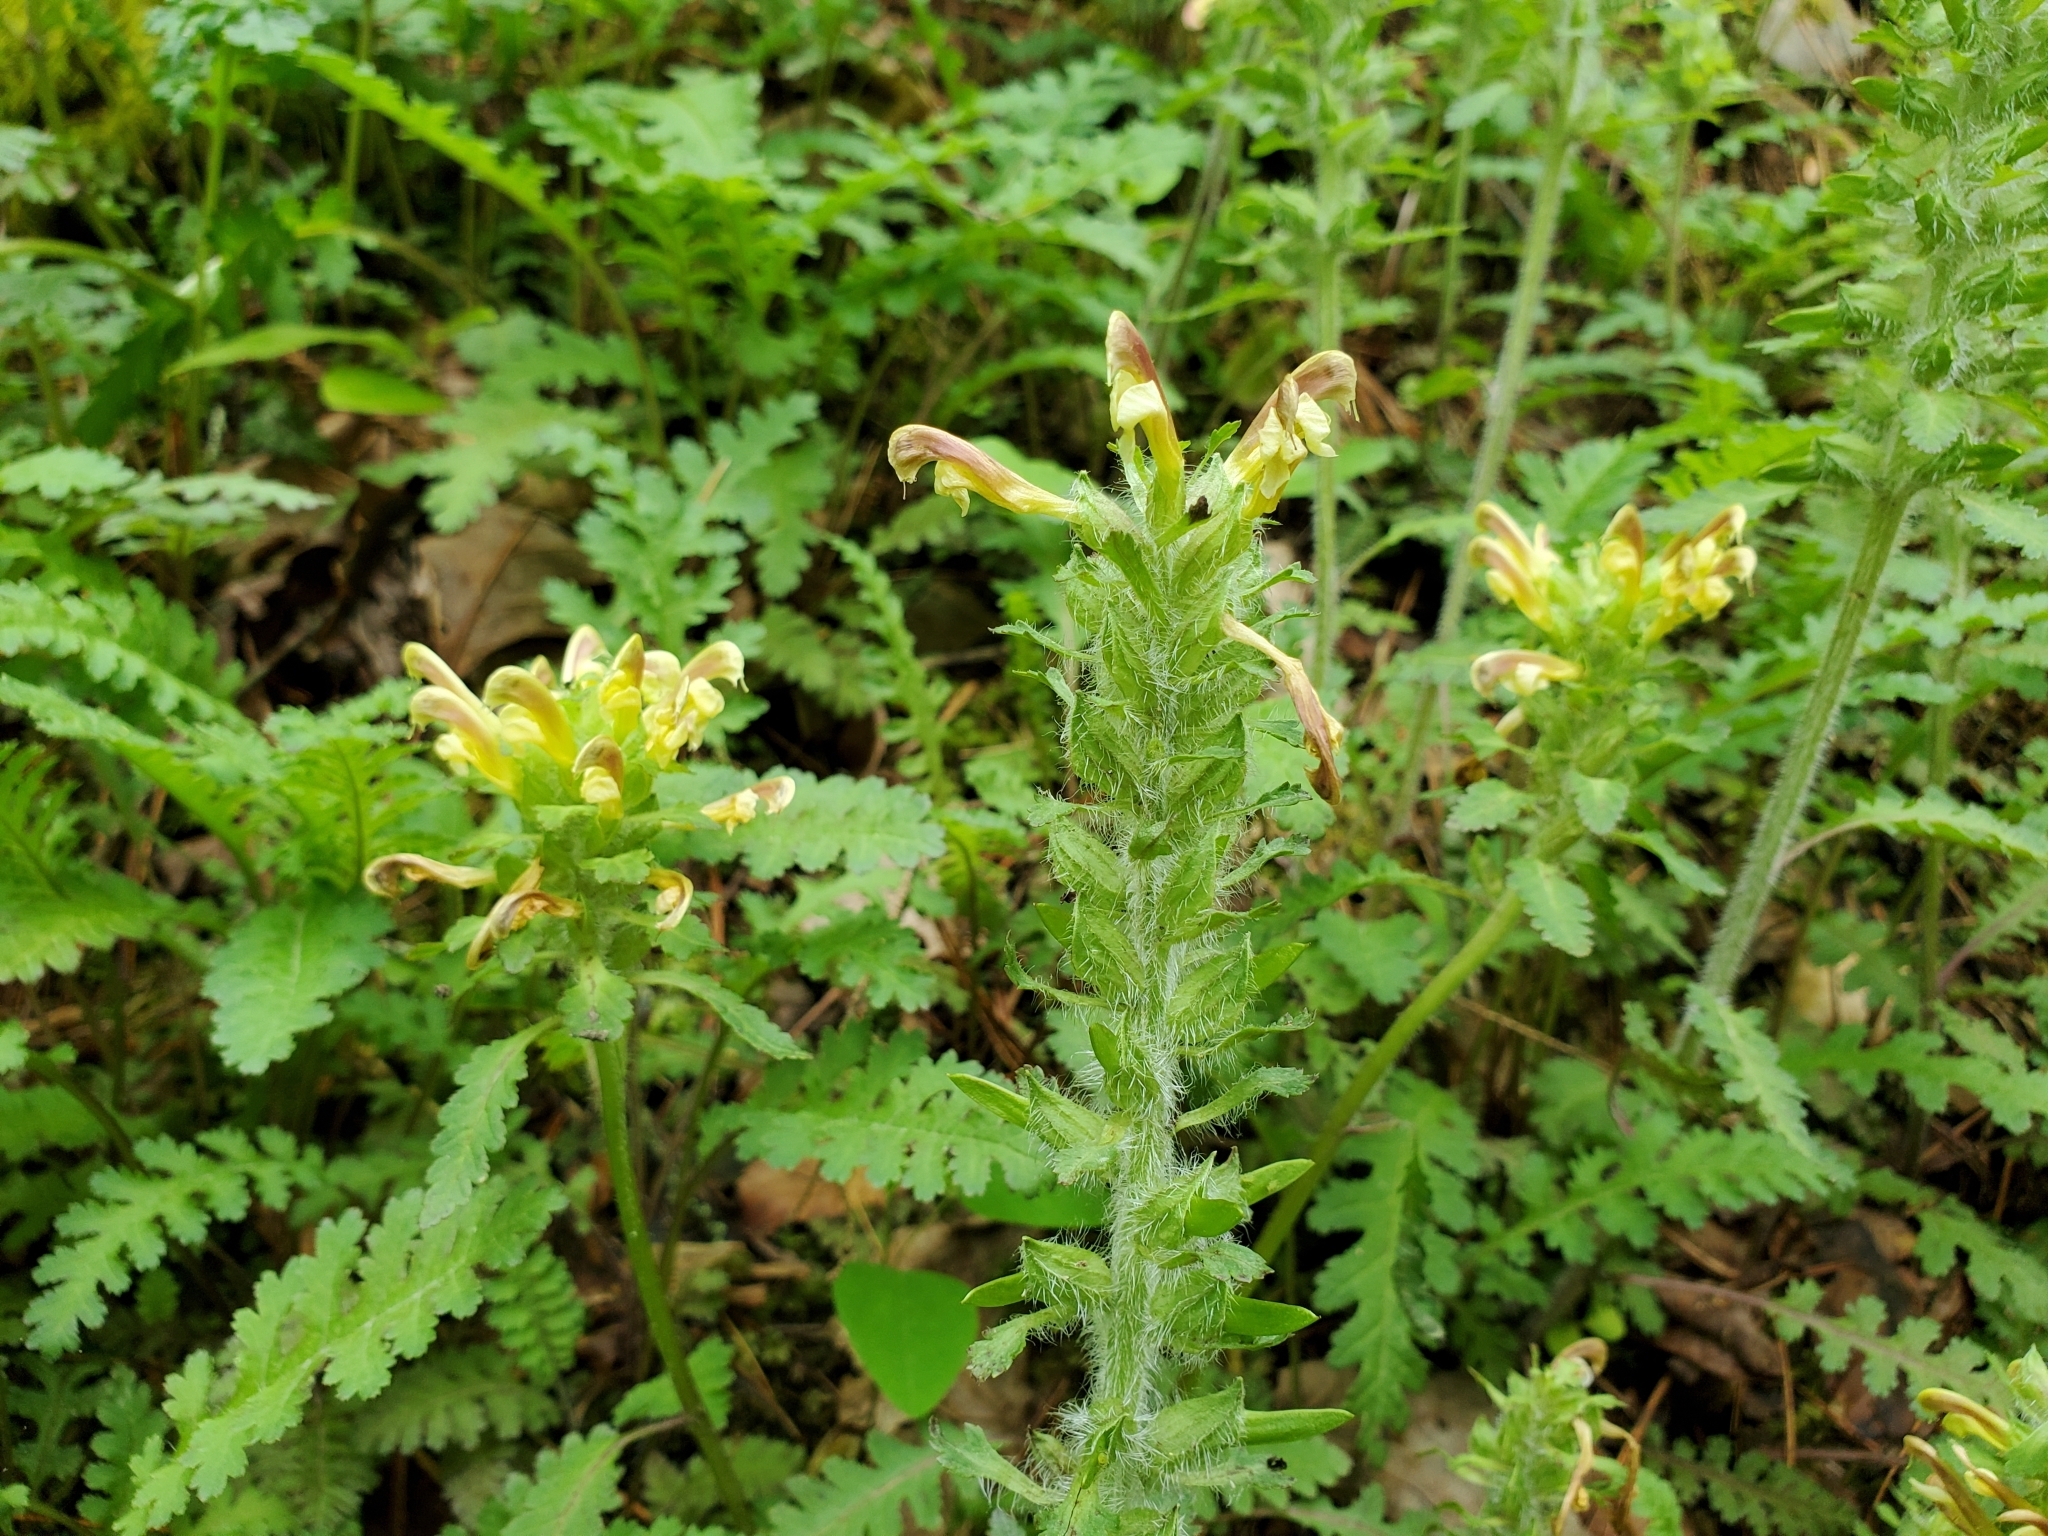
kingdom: Plantae
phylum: Tracheophyta
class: Magnoliopsida
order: Lamiales
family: Orobanchaceae
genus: Pedicularis
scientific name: Pedicularis canadensis
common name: Early lousewort
